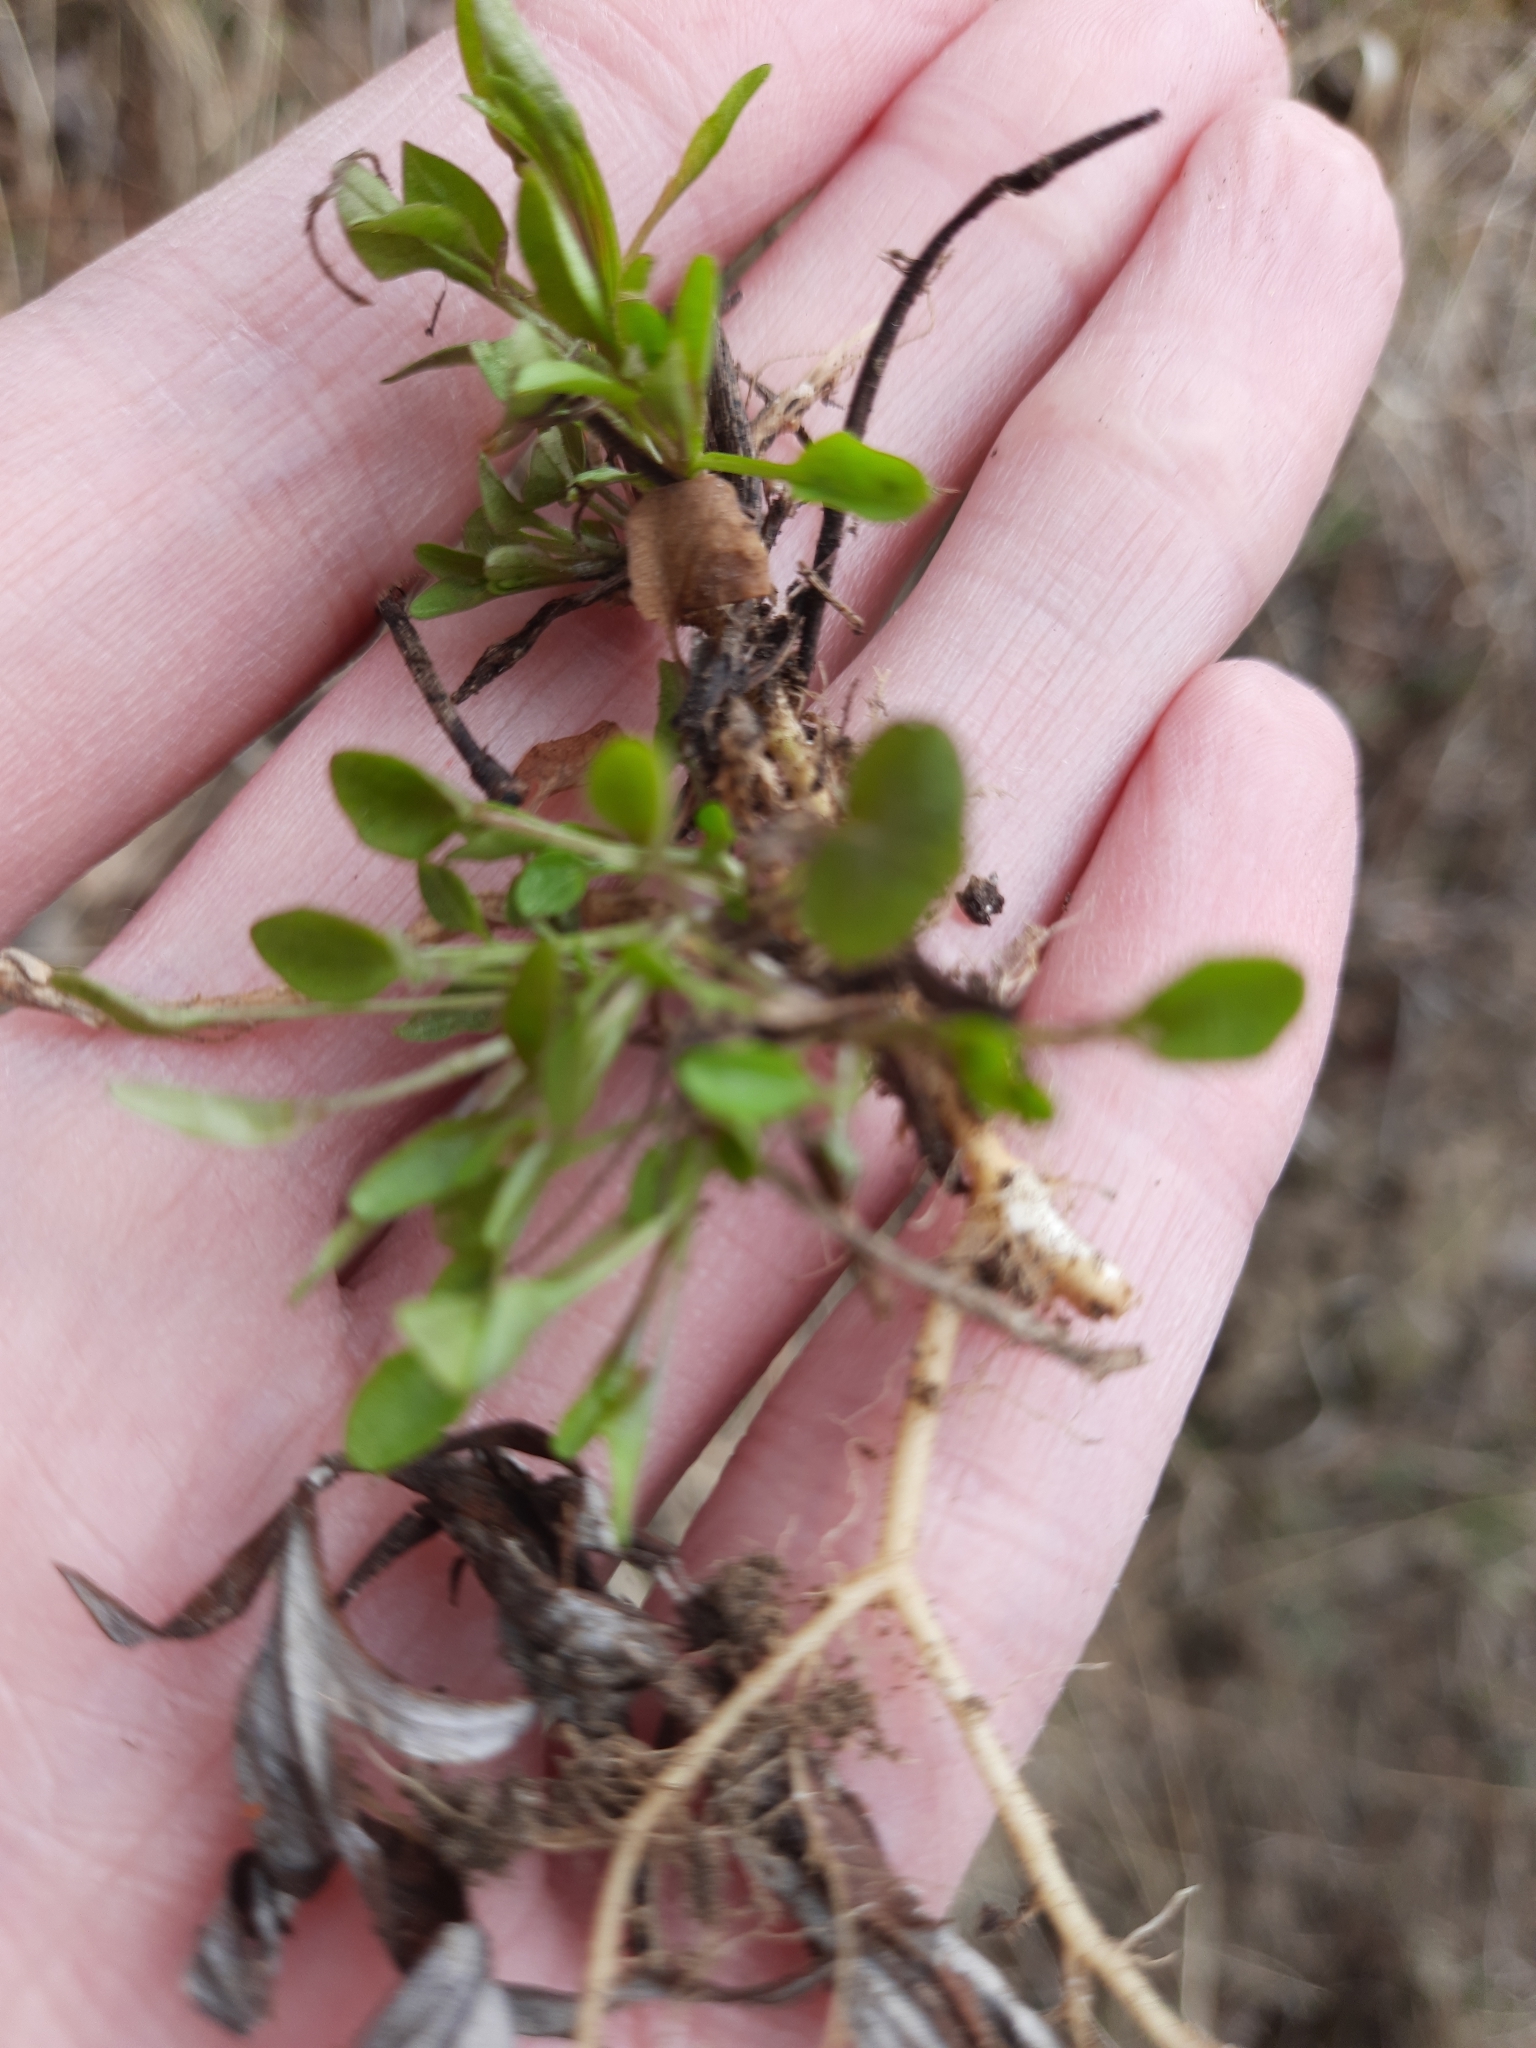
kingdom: Plantae
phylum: Tracheophyta
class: Magnoliopsida
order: Caryophyllales
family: Polygonaceae
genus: Rumex
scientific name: Rumex acetosella
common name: Common sheep sorrel
